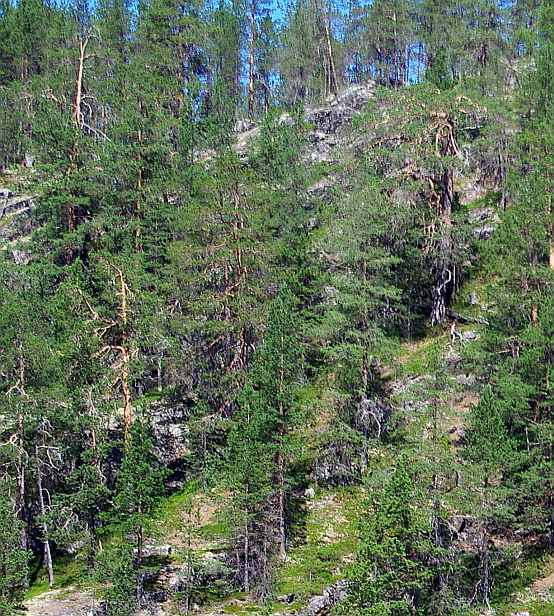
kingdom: Plantae
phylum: Tracheophyta
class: Pinopsida
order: Pinales
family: Pinaceae
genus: Pinus
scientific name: Pinus sylvestris
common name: Scots pine
